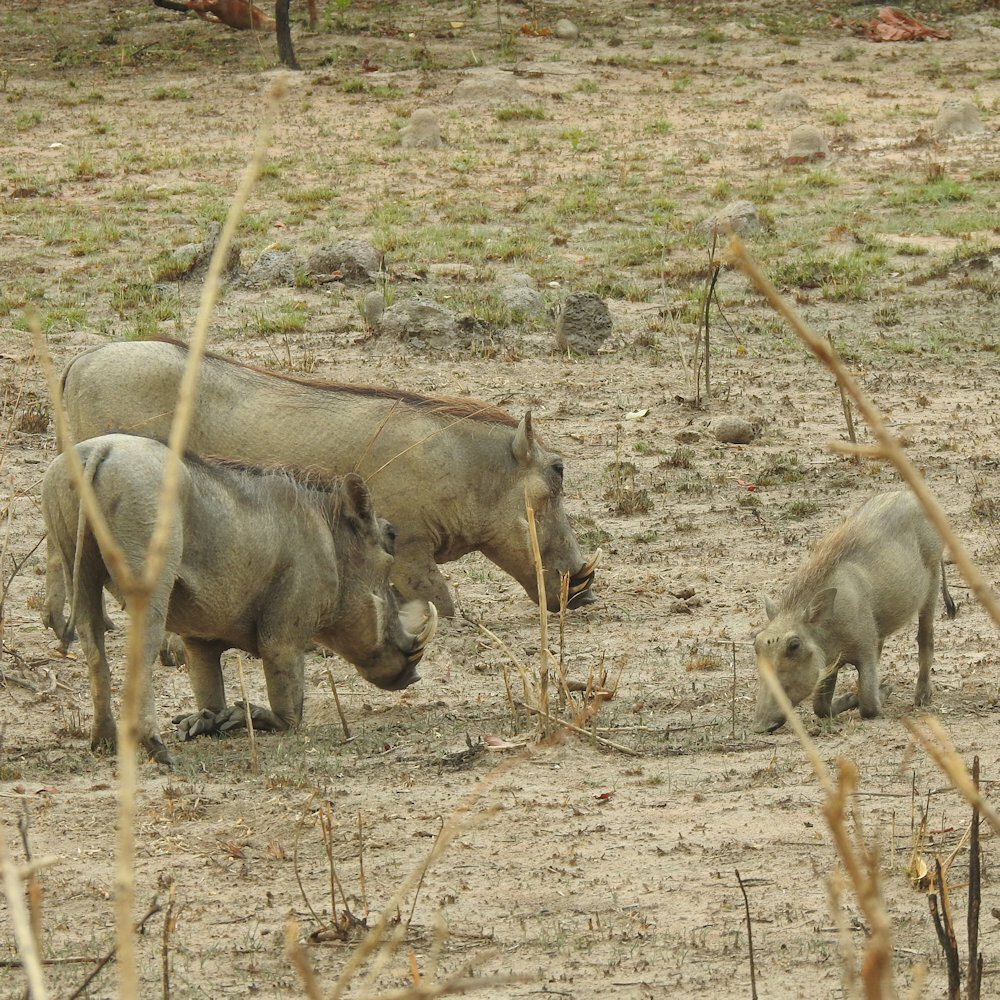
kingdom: Animalia
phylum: Chordata
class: Mammalia
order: Artiodactyla
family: Suidae
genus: Phacochoerus
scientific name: Phacochoerus africanus
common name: Common warthog
